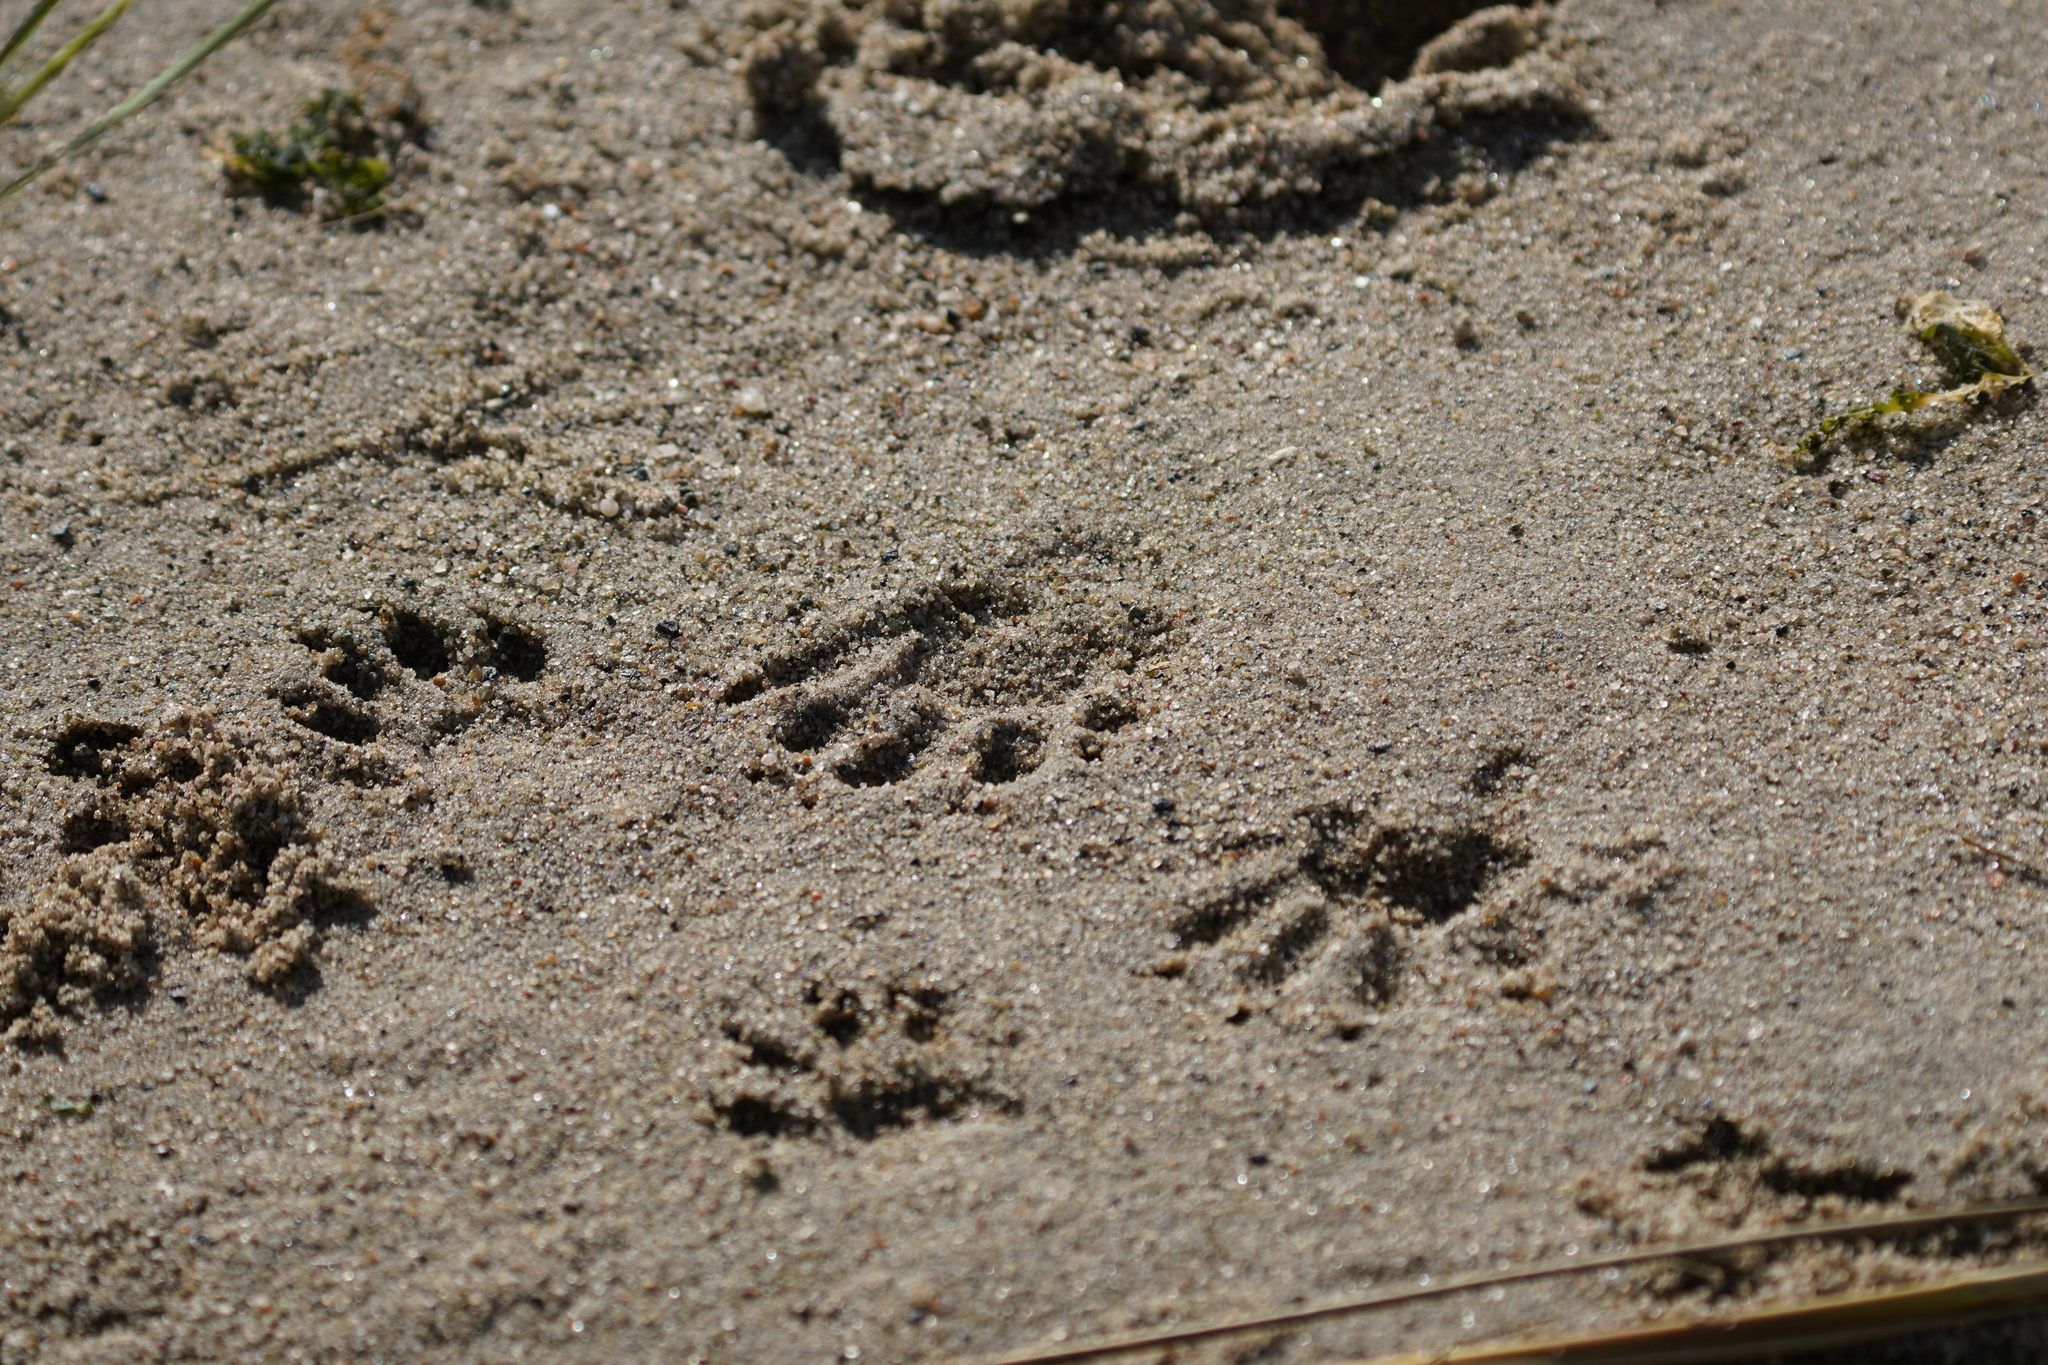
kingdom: Animalia
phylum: Chordata
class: Mammalia
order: Carnivora
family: Procyonidae
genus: Procyon
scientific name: Procyon lotor
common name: Raccoon
